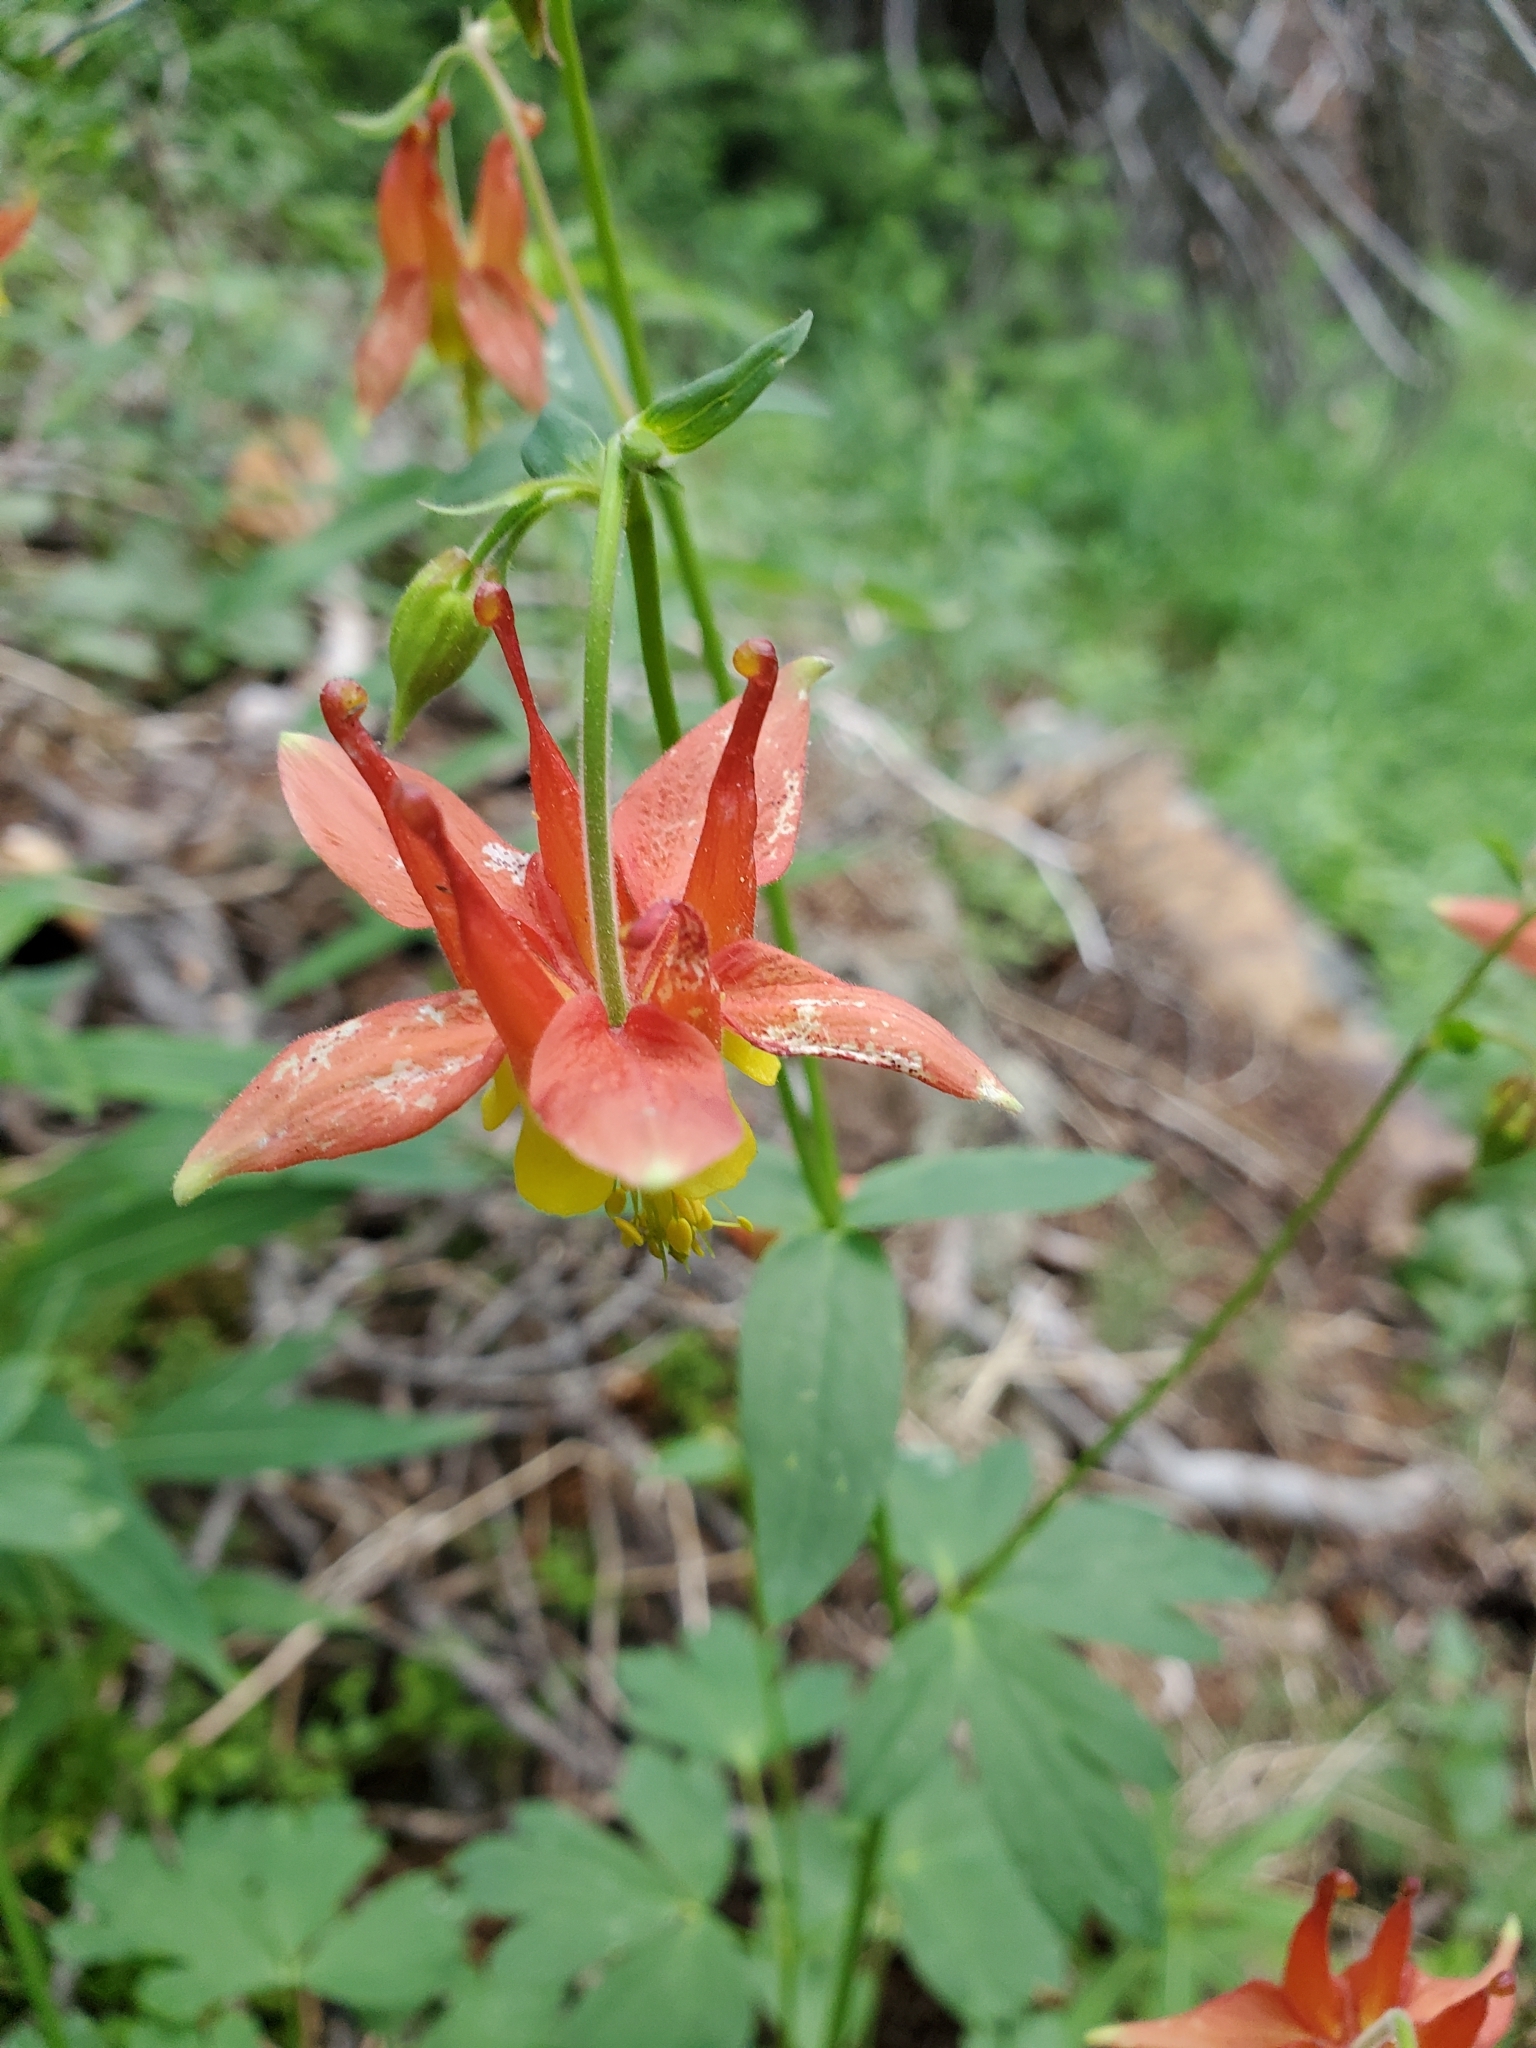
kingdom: Plantae
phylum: Tracheophyta
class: Magnoliopsida
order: Ranunculales
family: Ranunculaceae
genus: Aquilegia
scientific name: Aquilegia formosa
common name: Sitka columbine
